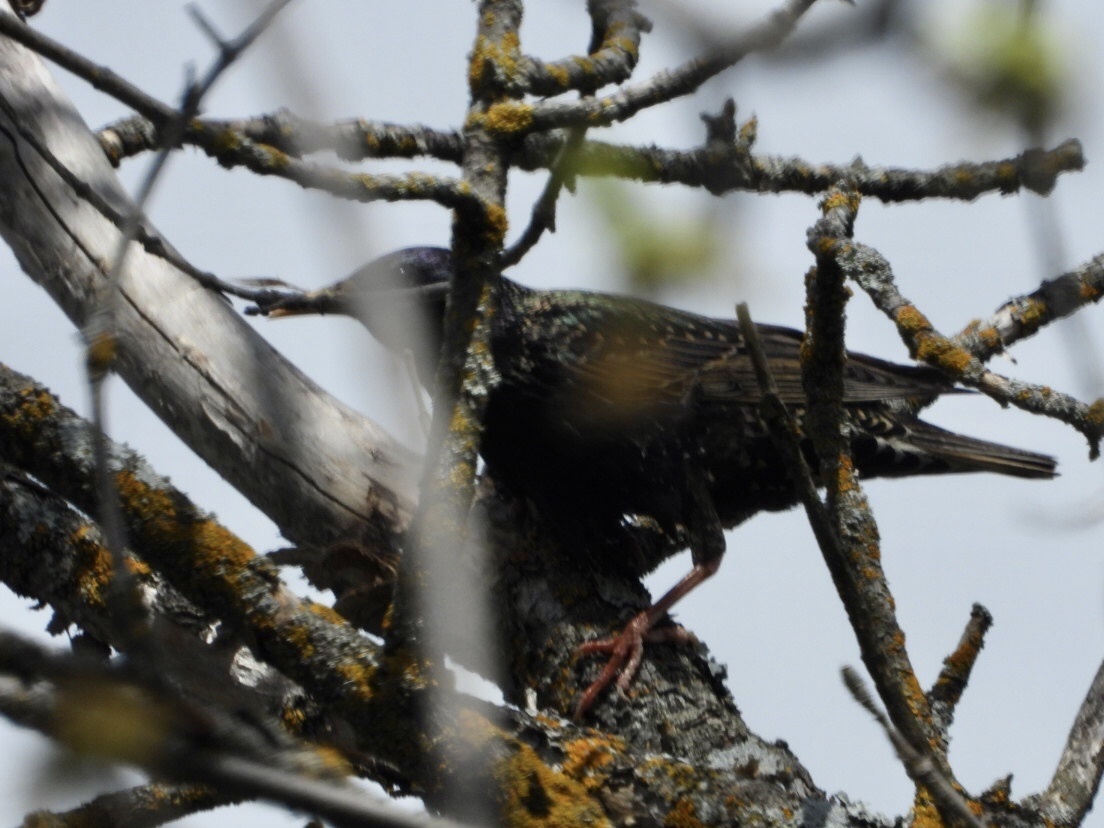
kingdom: Animalia
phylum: Chordata
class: Aves
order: Passeriformes
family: Sturnidae
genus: Sturnus
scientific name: Sturnus vulgaris
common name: Common starling
